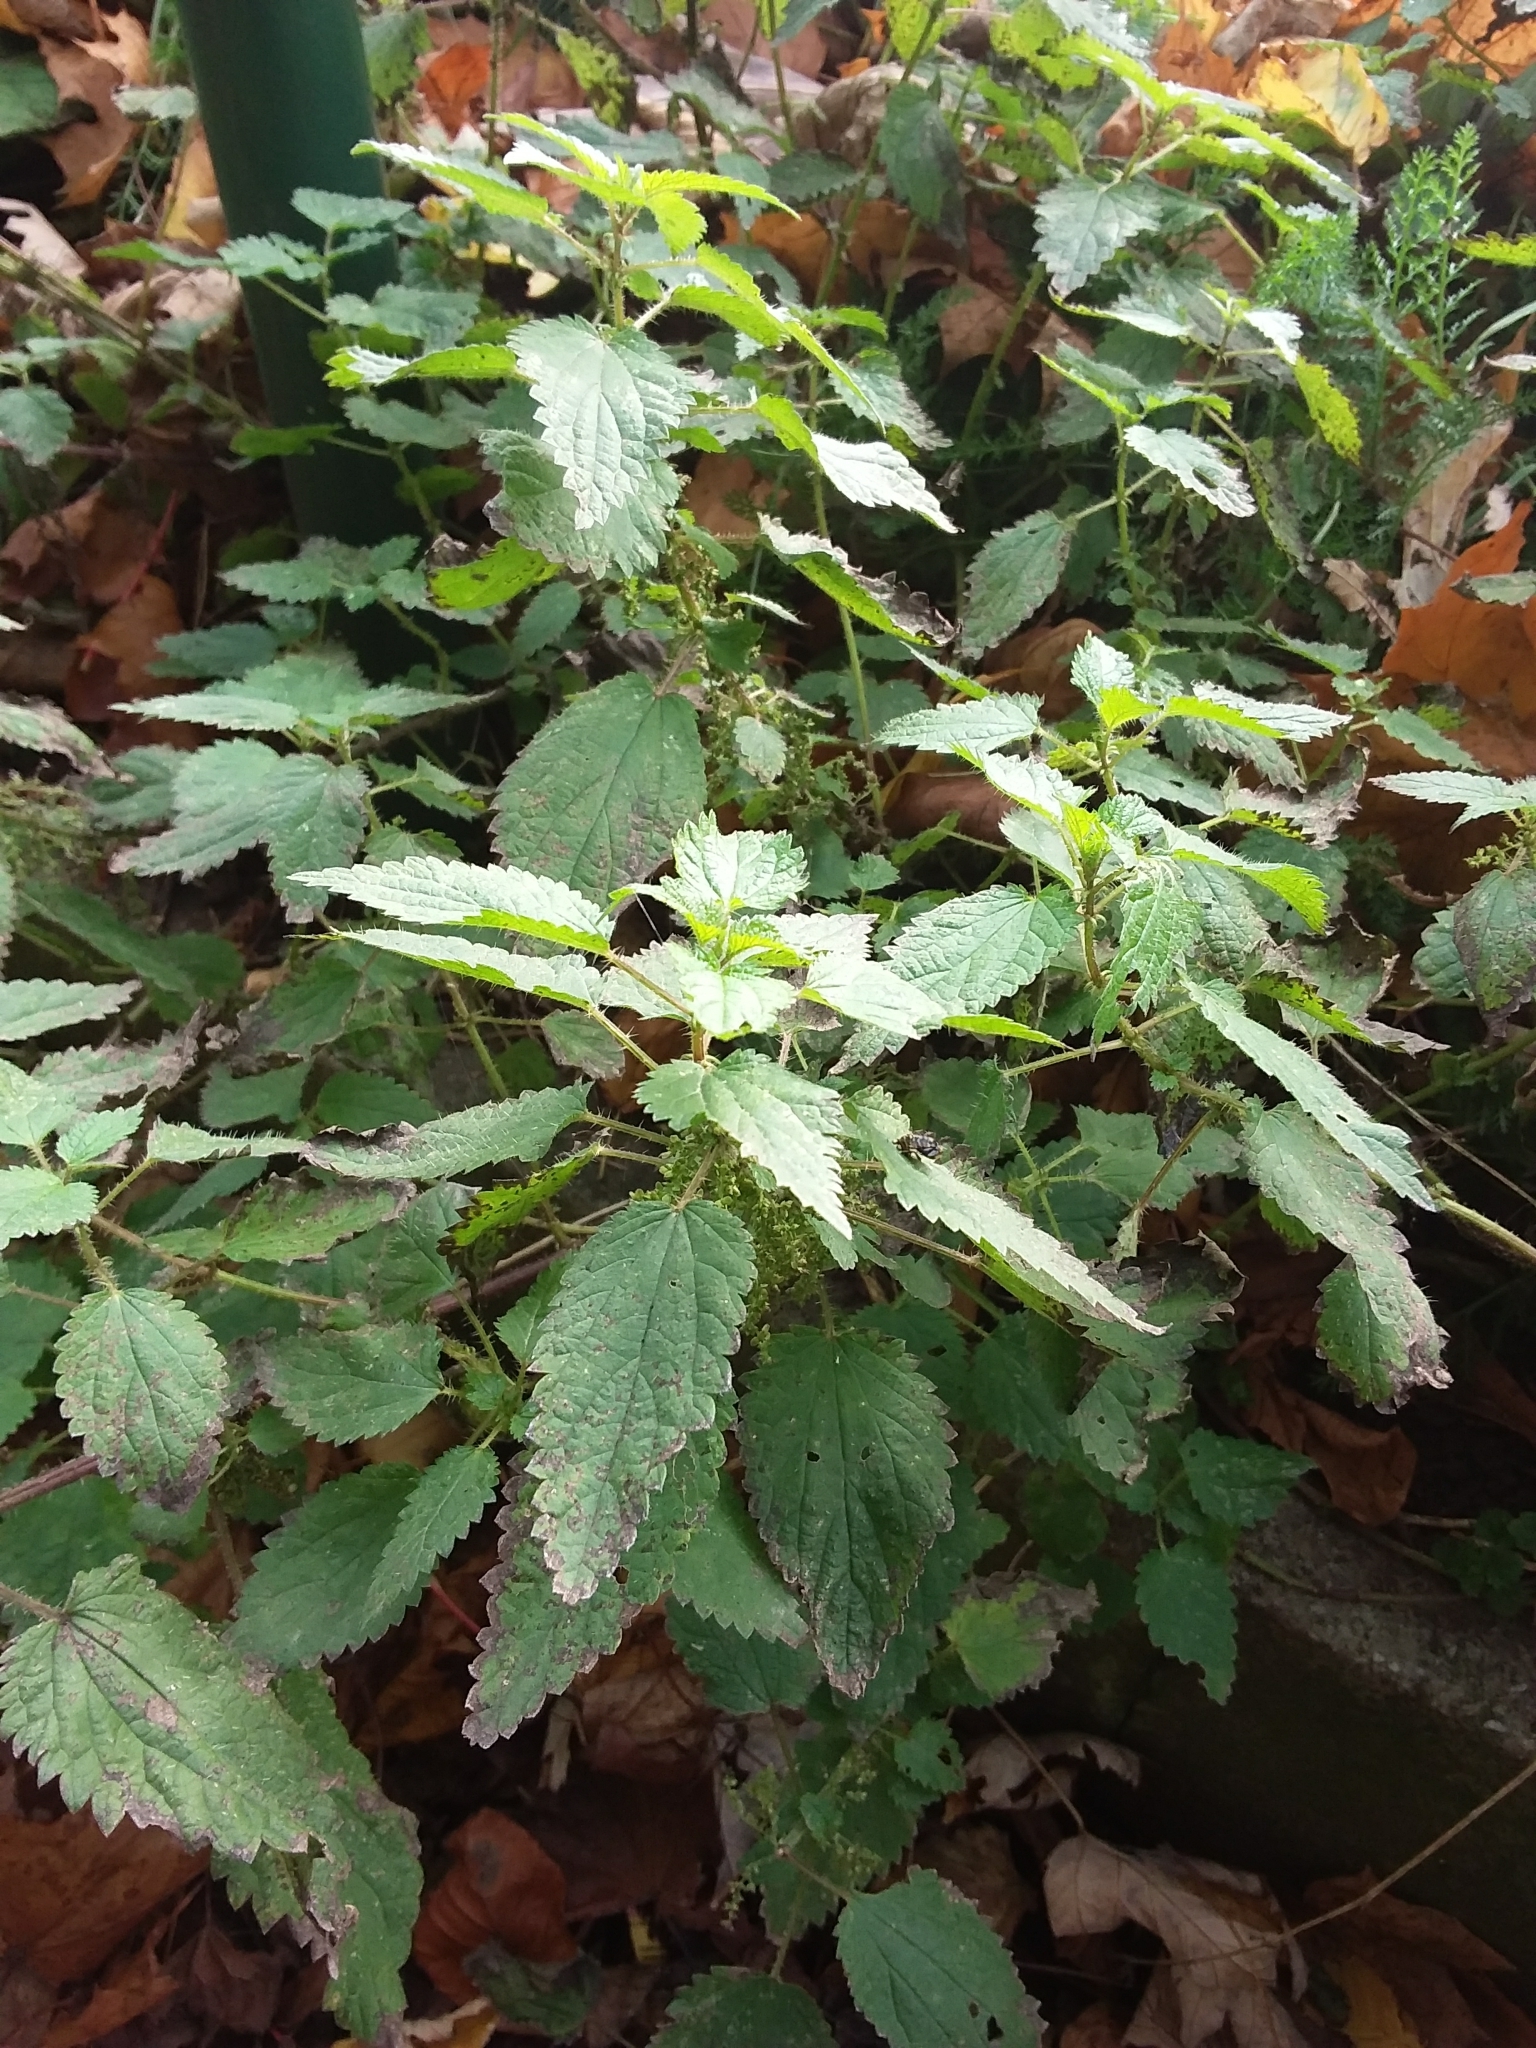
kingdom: Plantae
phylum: Tracheophyta
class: Magnoliopsida
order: Rosales
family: Urticaceae
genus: Urtica
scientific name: Urtica dioica
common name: Common nettle
